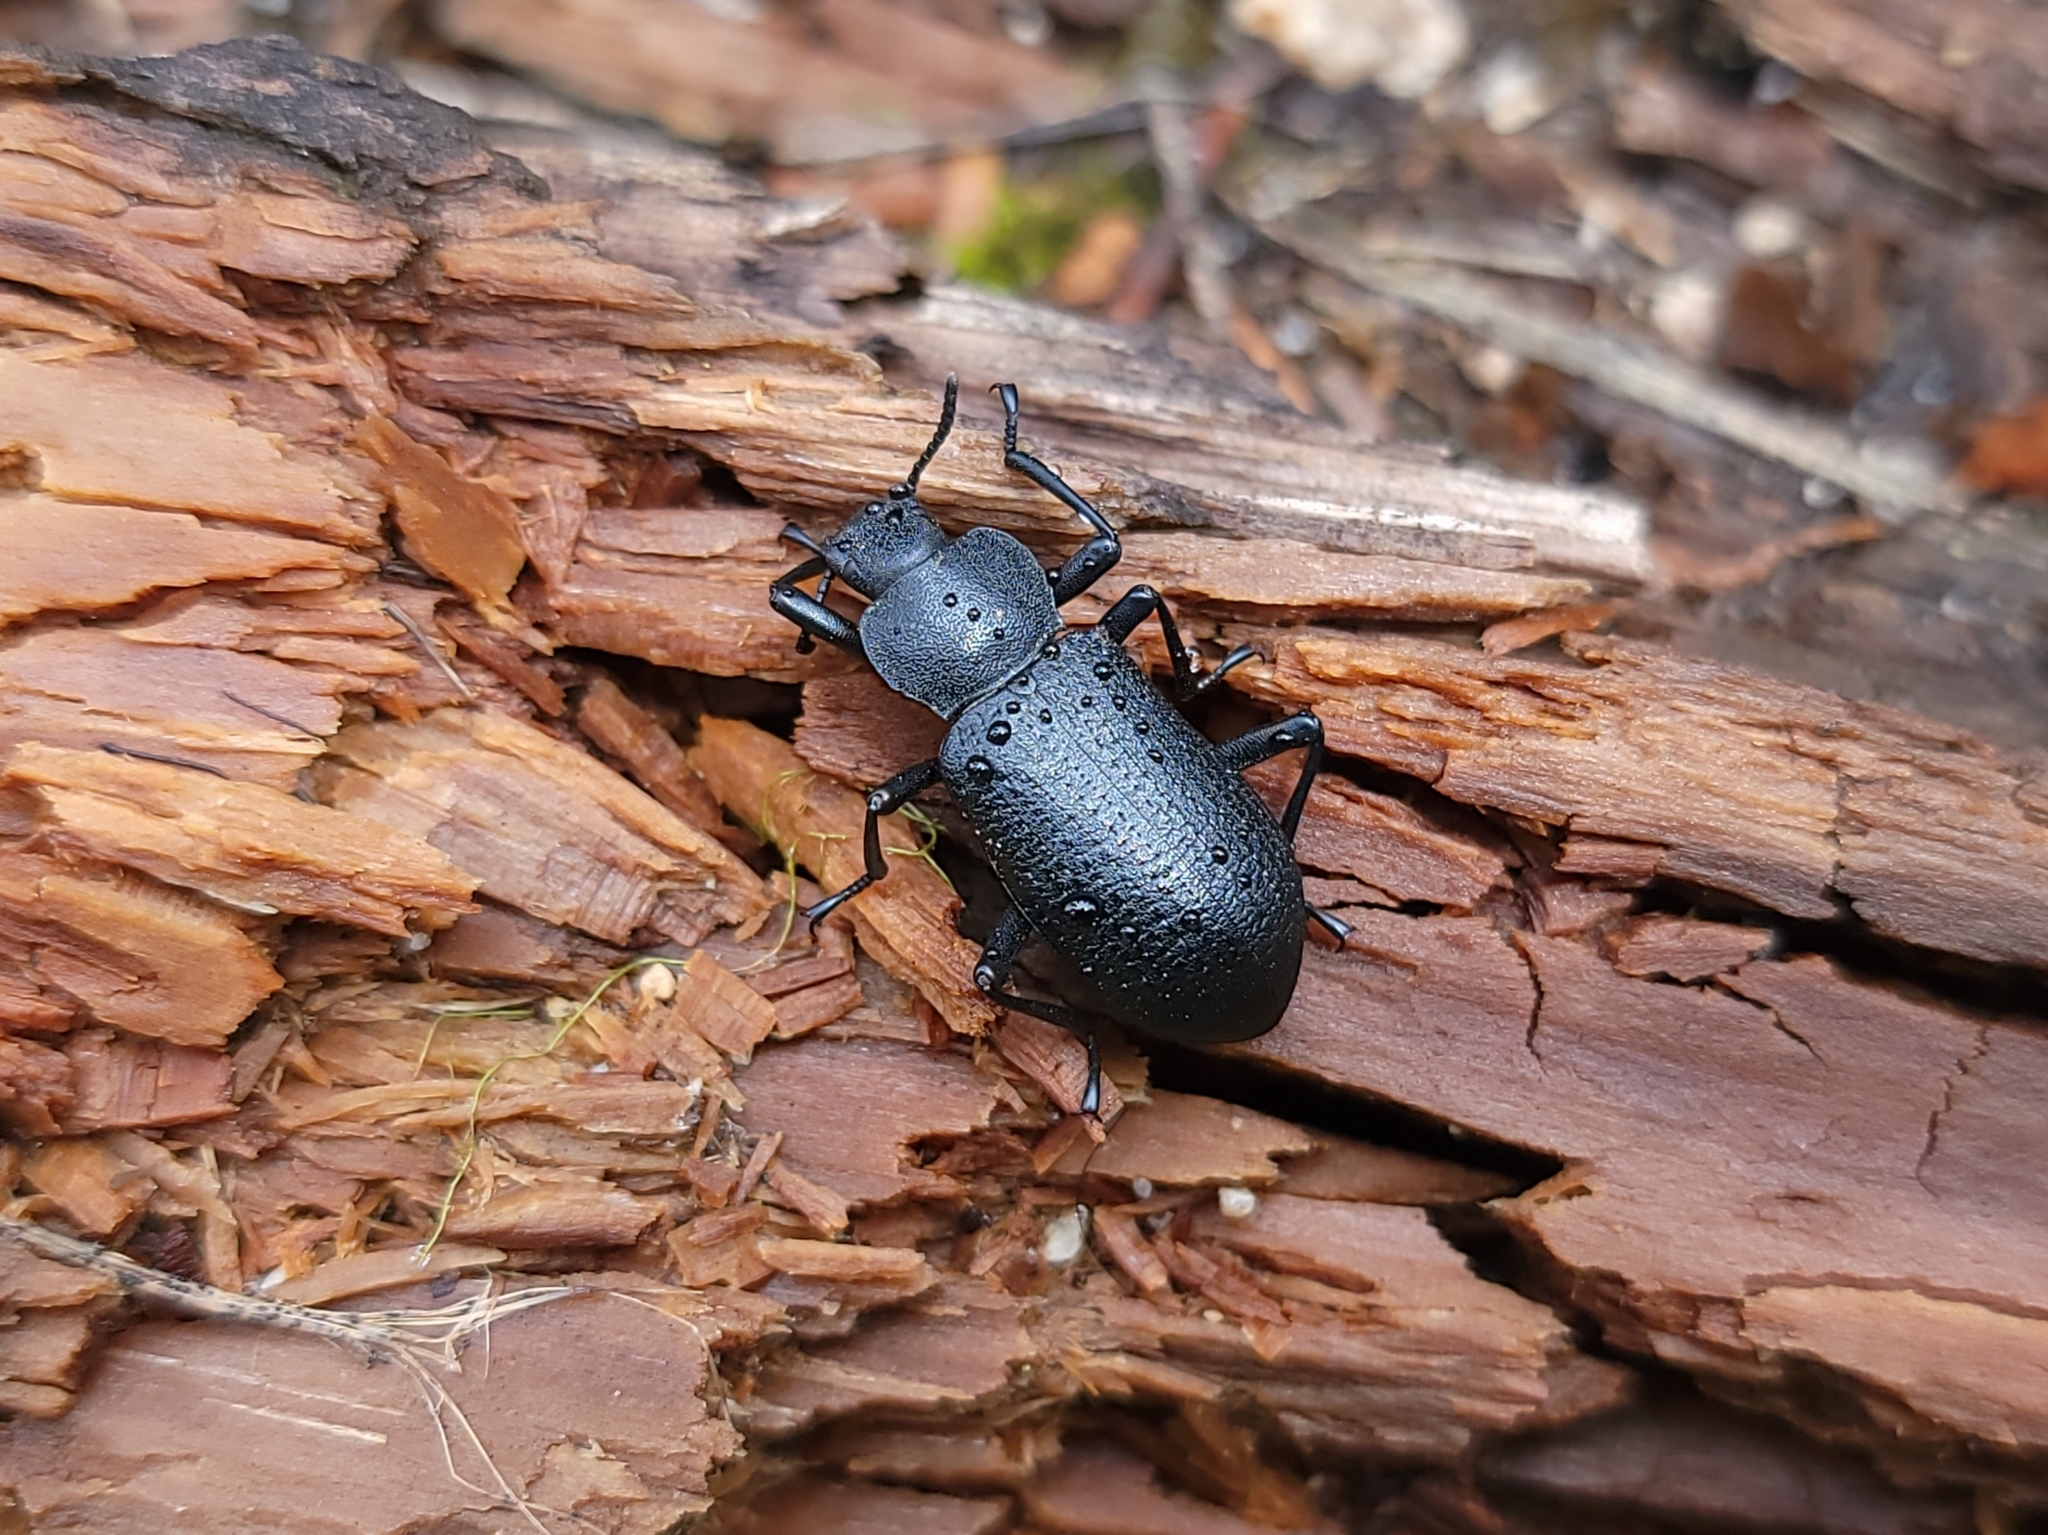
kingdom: Animalia
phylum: Arthropoda
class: Insecta
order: Coleoptera
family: Tenebrionidae
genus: Iphthiminus
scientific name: Iphthiminus serratus
